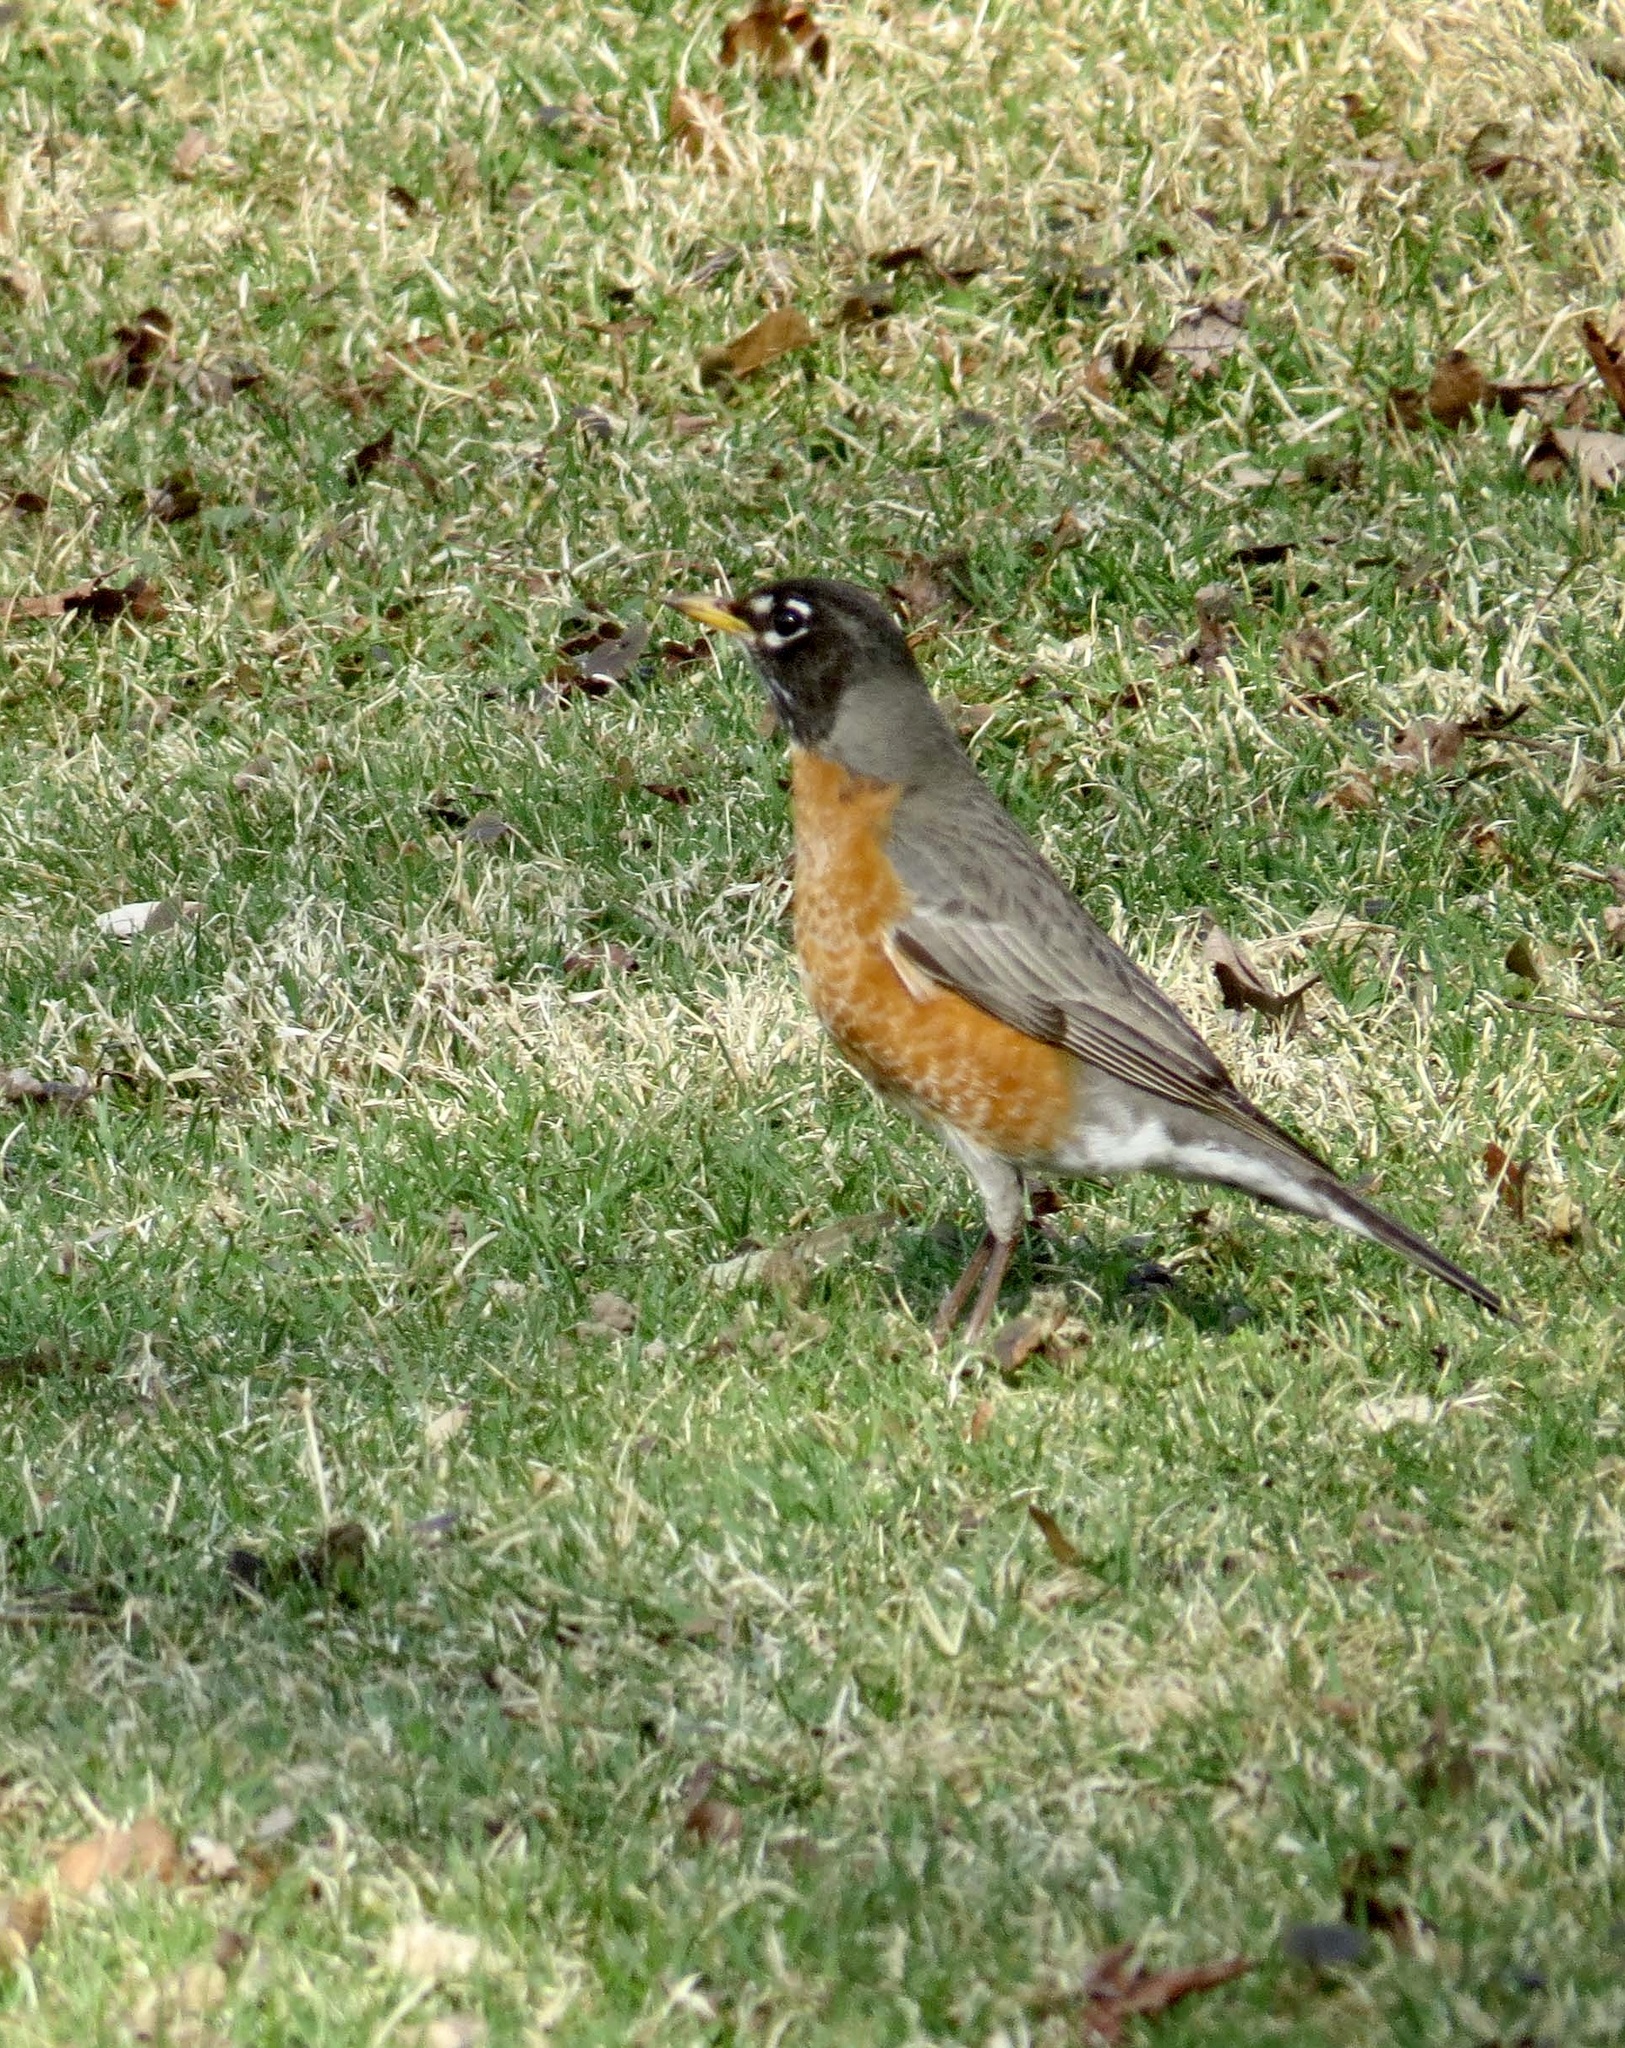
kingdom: Animalia
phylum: Chordata
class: Aves
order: Passeriformes
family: Turdidae
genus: Turdus
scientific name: Turdus migratorius
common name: American robin
